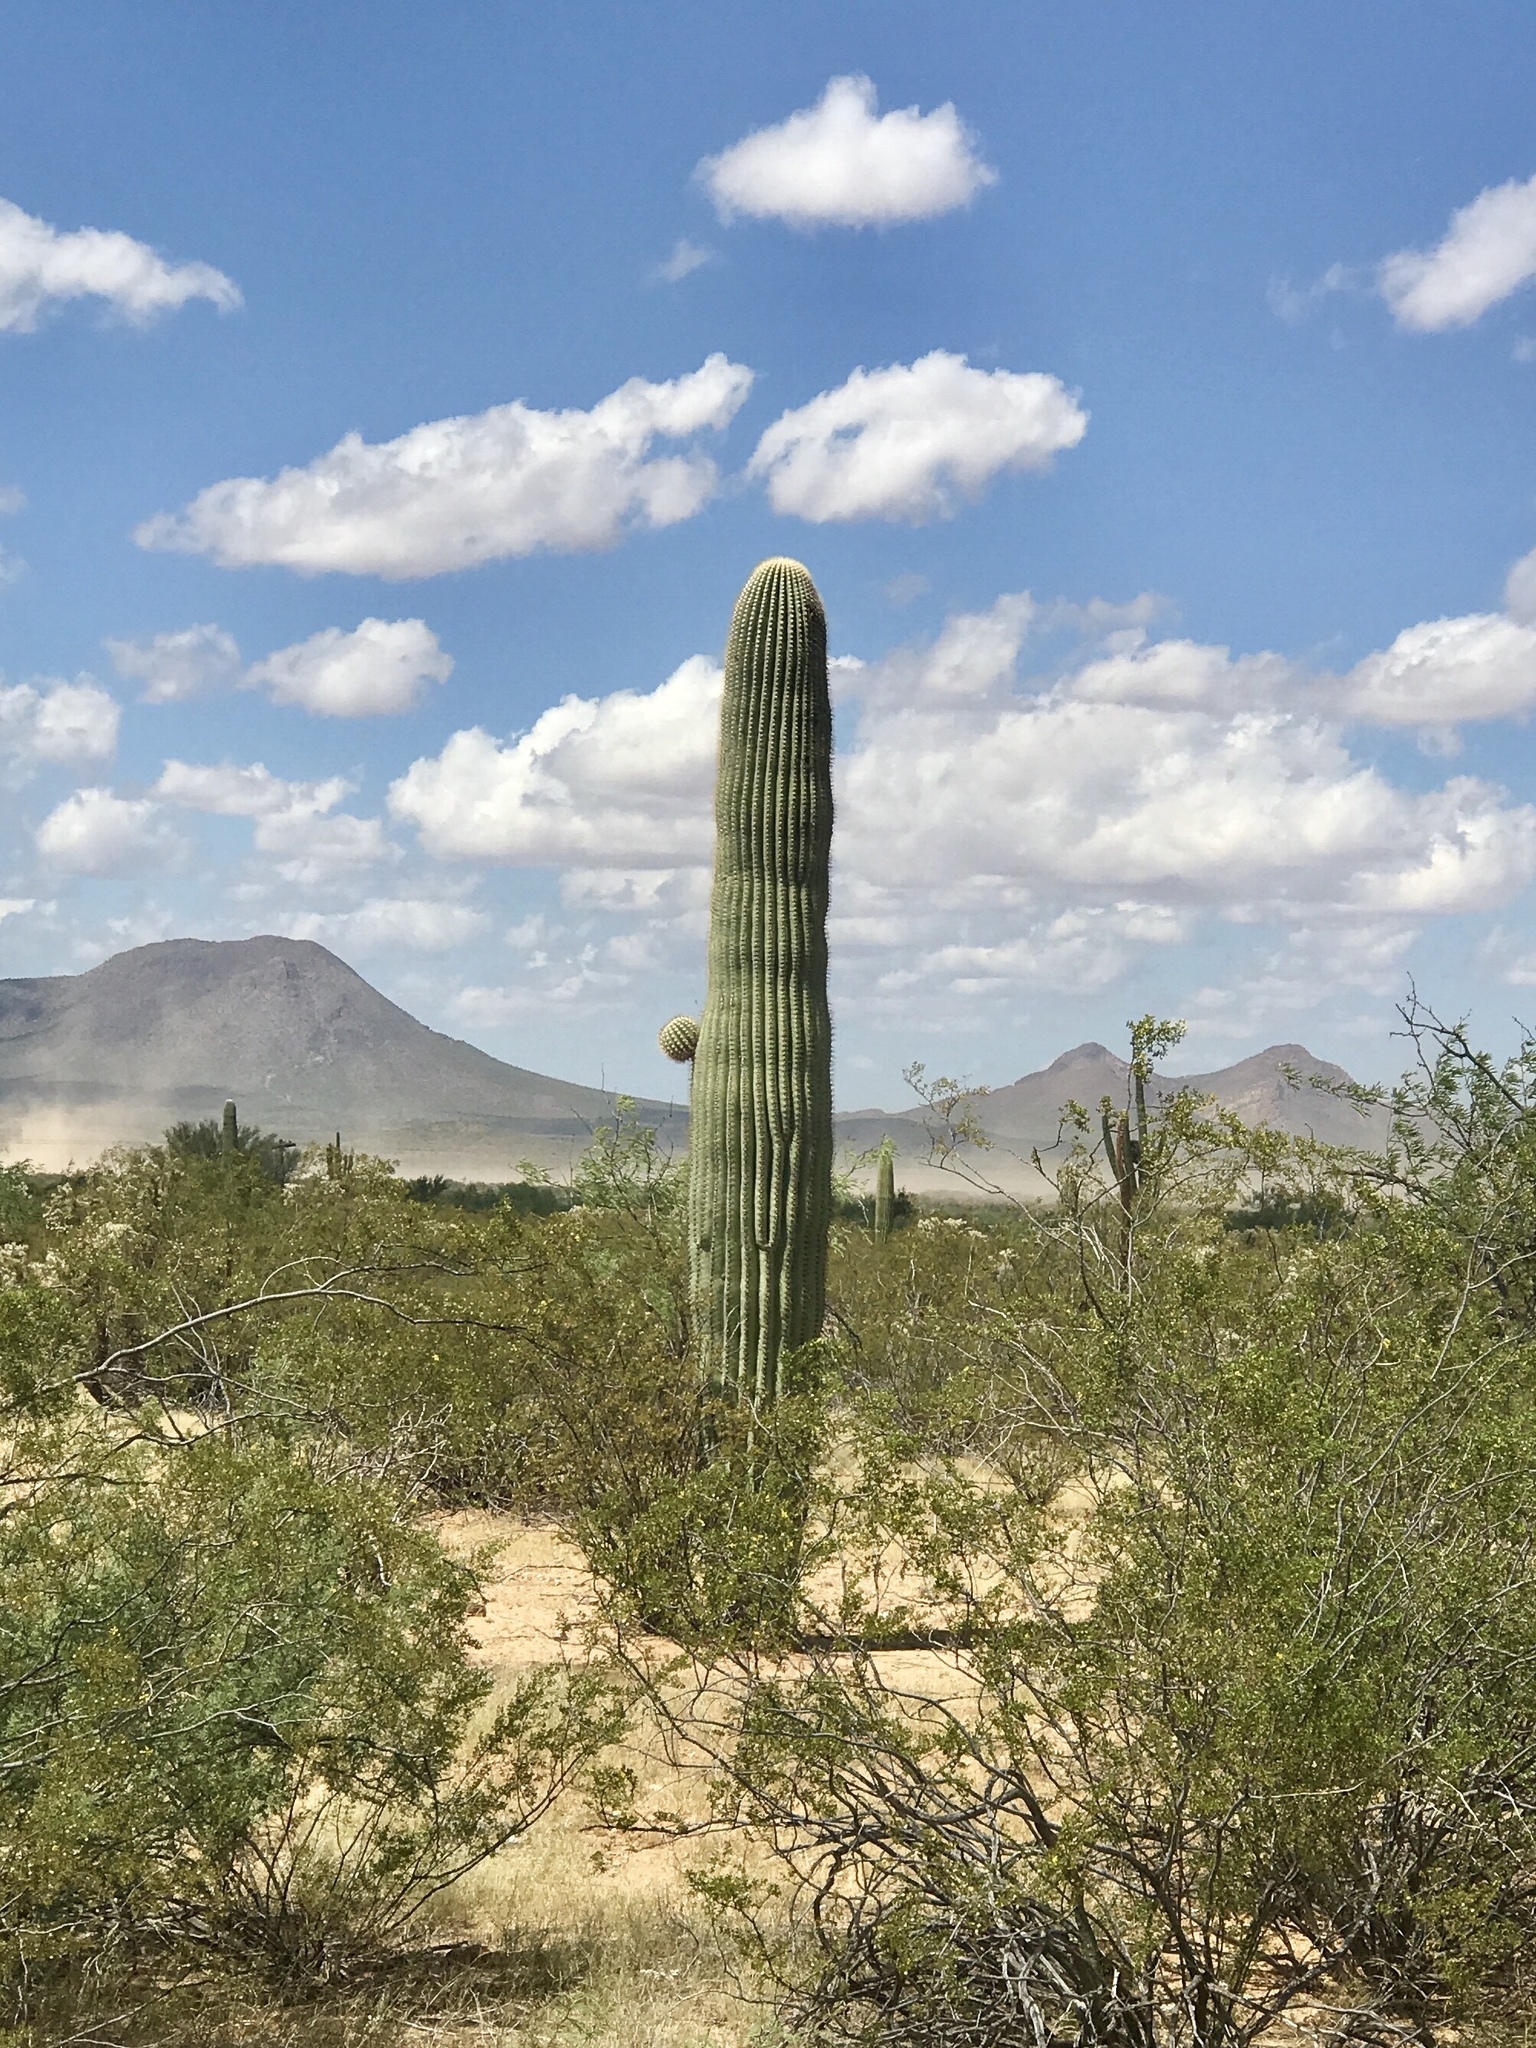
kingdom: Plantae
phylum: Tracheophyta
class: Magnoliopsida
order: Caryophyllales
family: Cactaceae
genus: Carnegiea
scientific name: Carnegiea gigantea
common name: Saguaro
